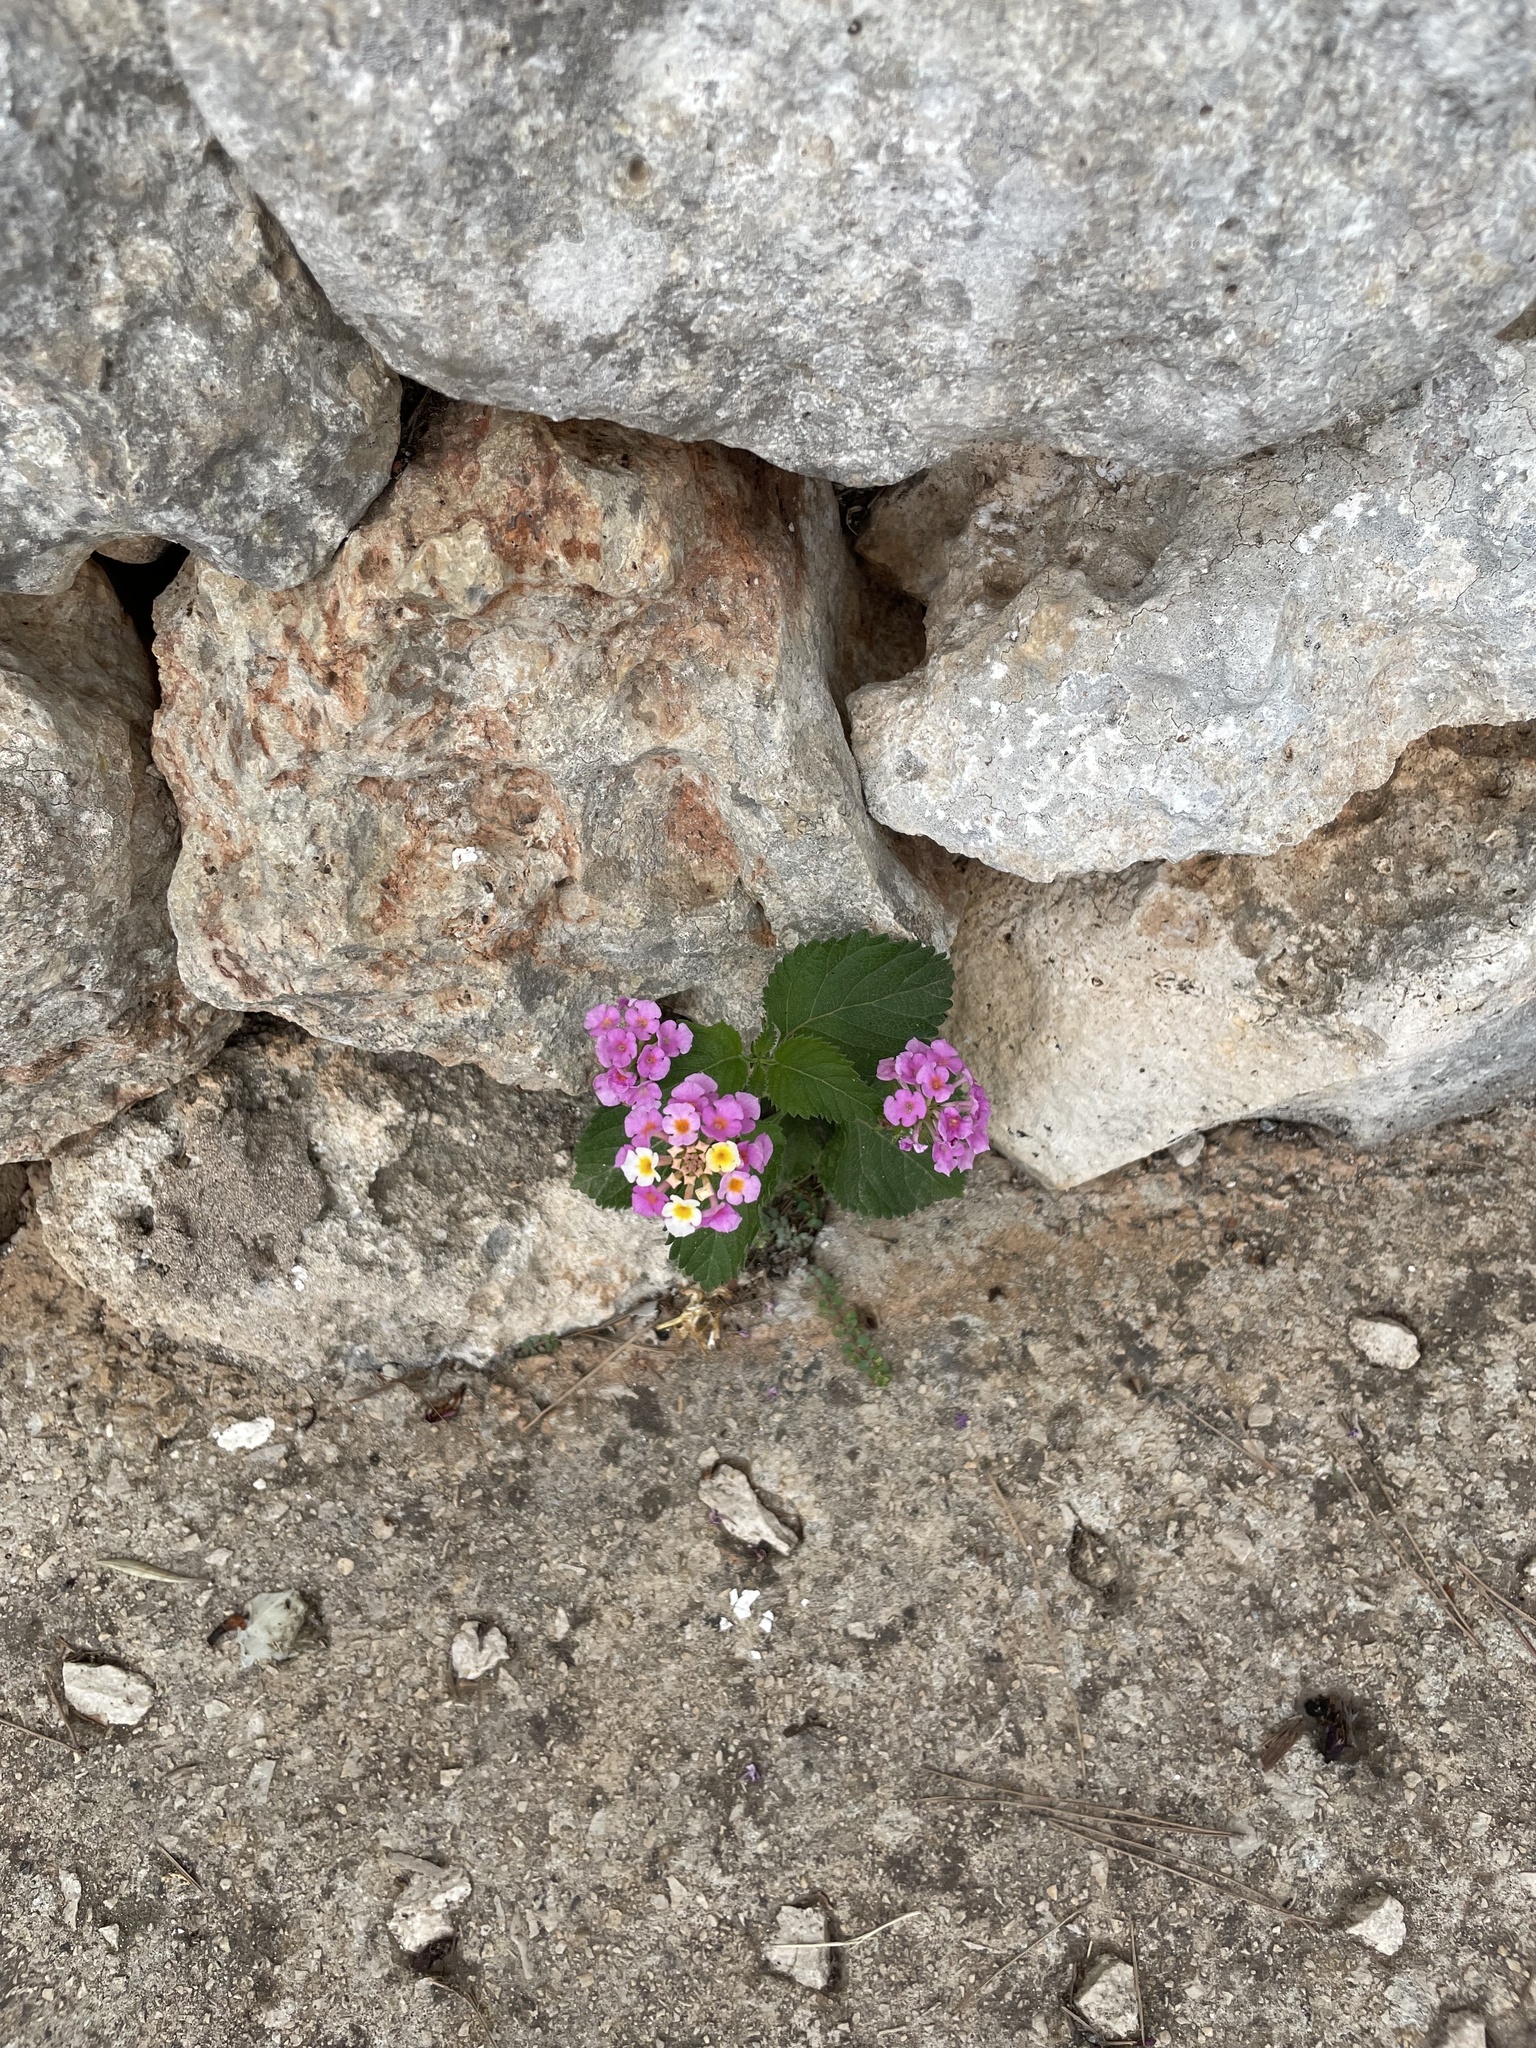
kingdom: Plantae
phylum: Tracheophyta
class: Magnoliopsida
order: Lamiales
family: Verbenaceae
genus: Lantana
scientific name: Lantana montevidensis
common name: Trailing shrubverbena
